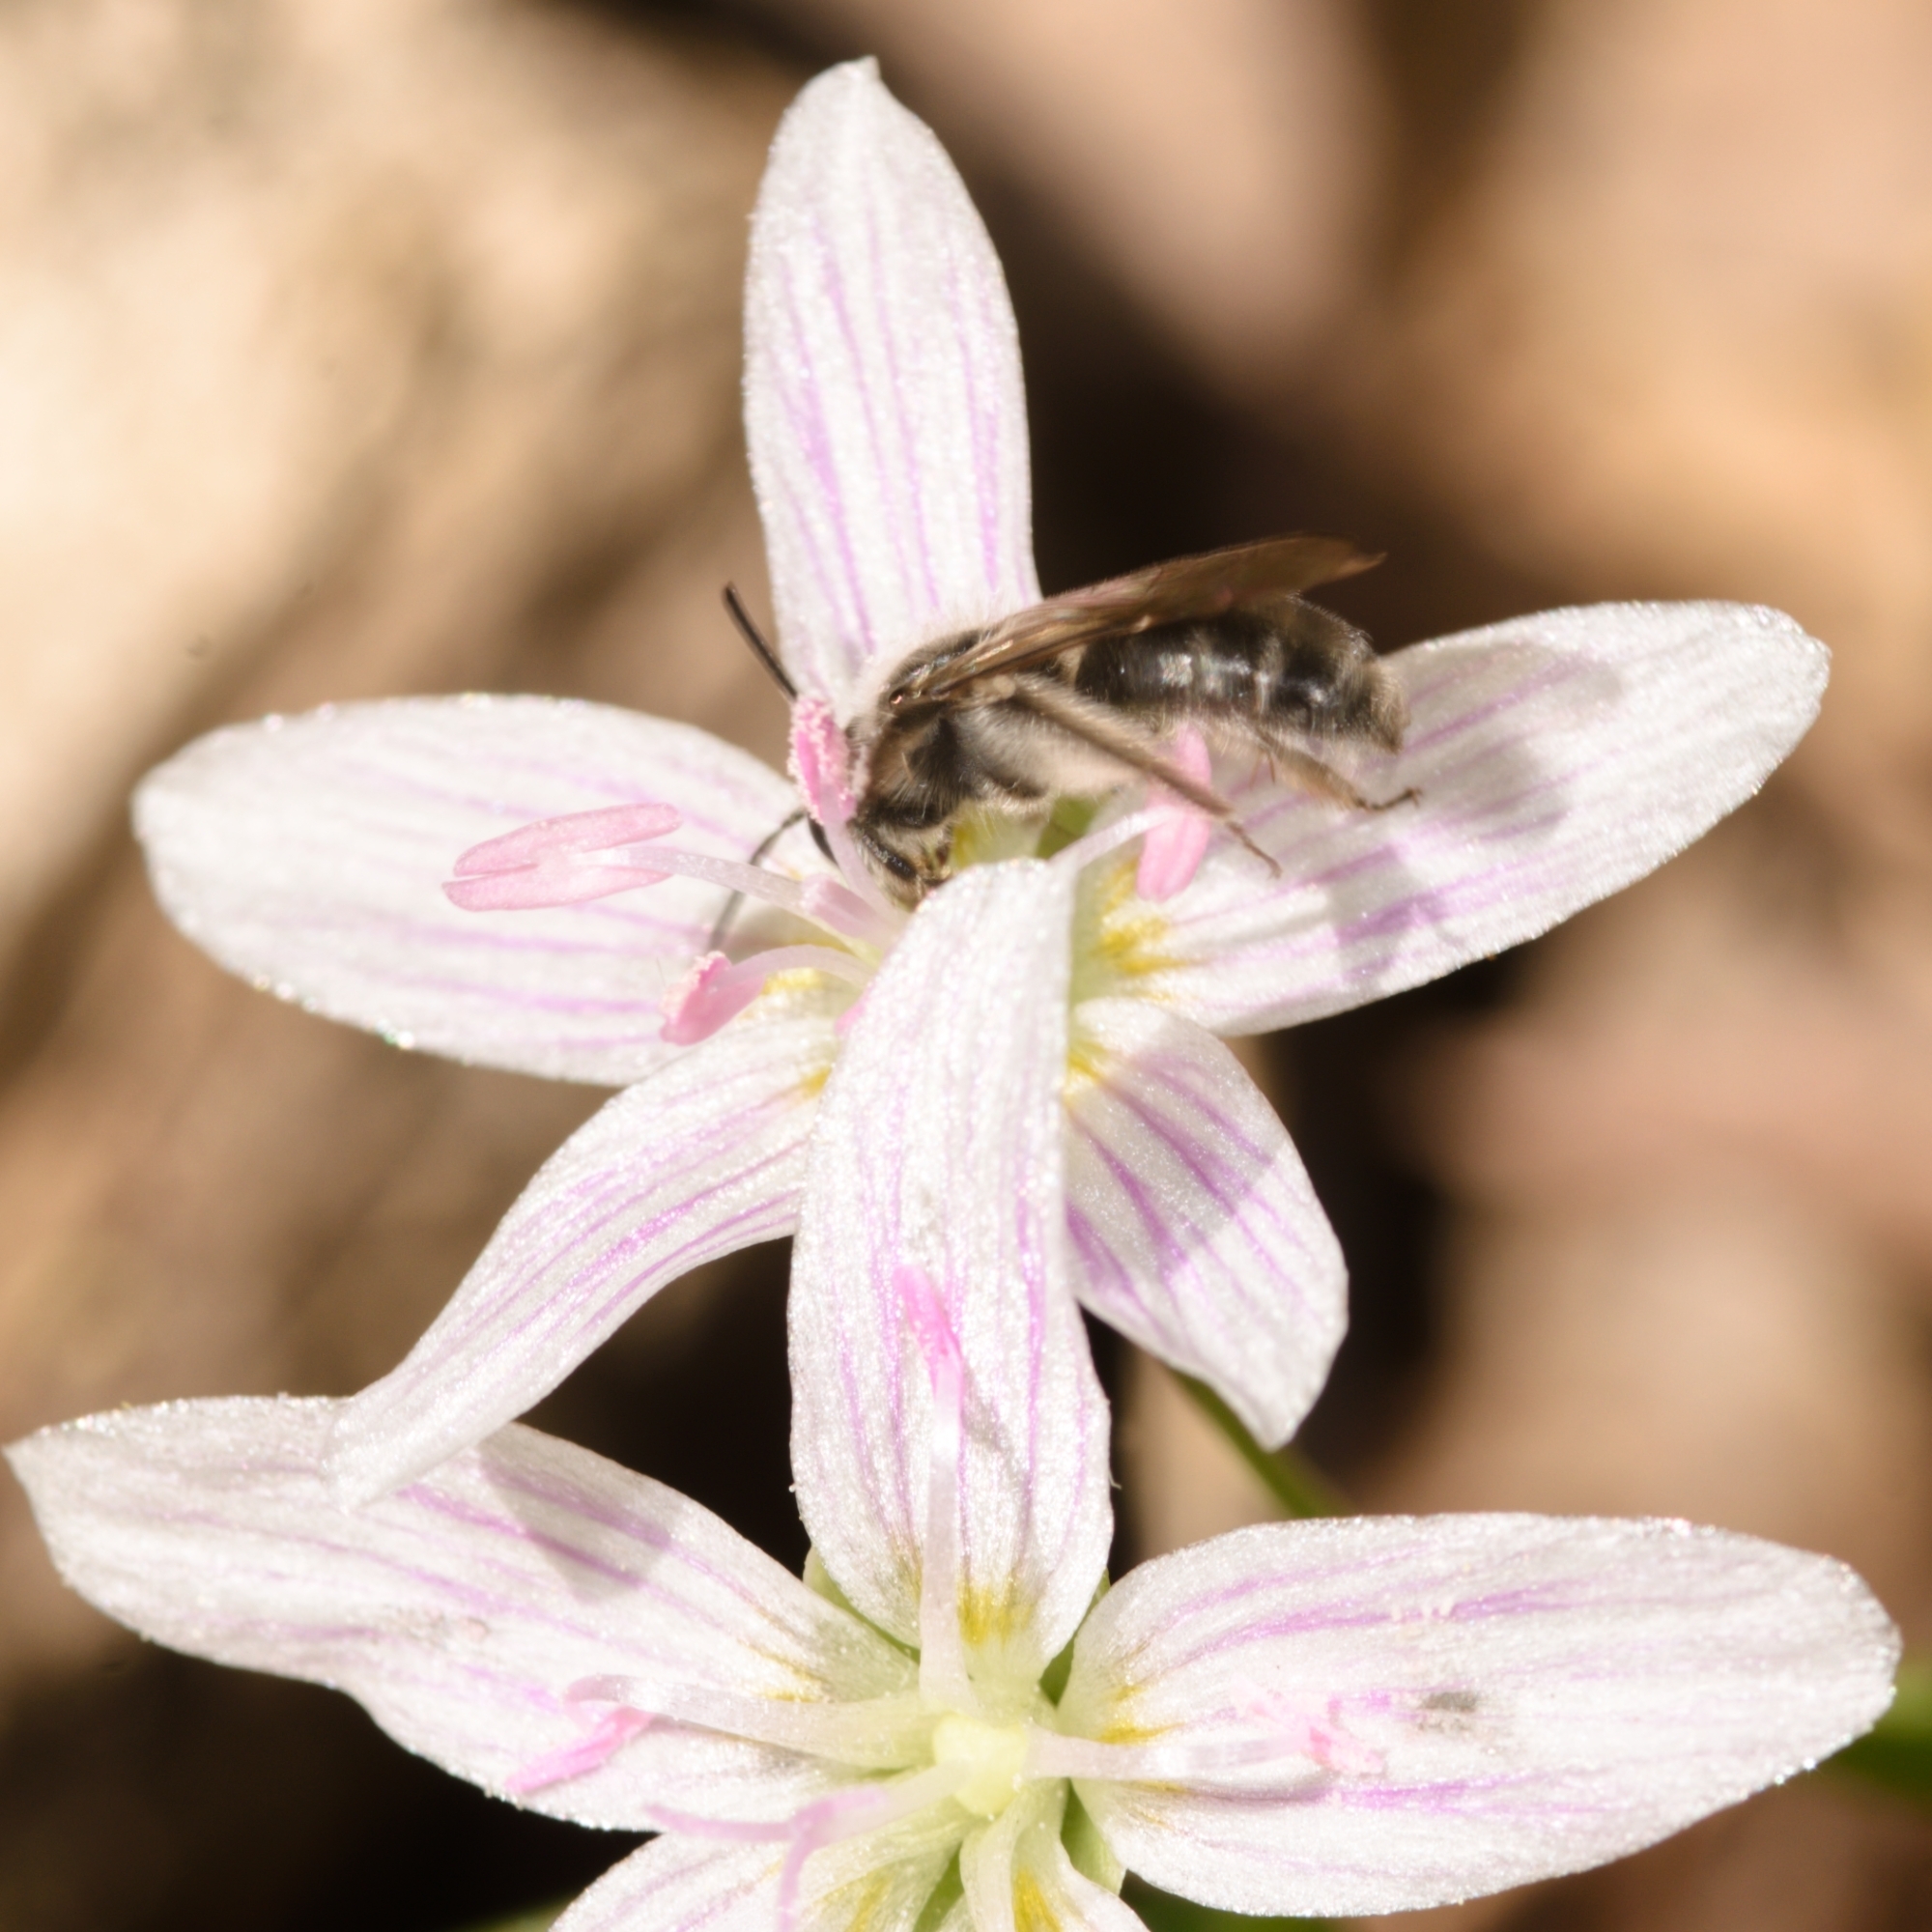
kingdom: Animalia
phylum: Arthropoda
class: Insecta
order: Hymenoptera
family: Andrenidae
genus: Andrena
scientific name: Andrena erigeniae
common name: Spring beauty miner
